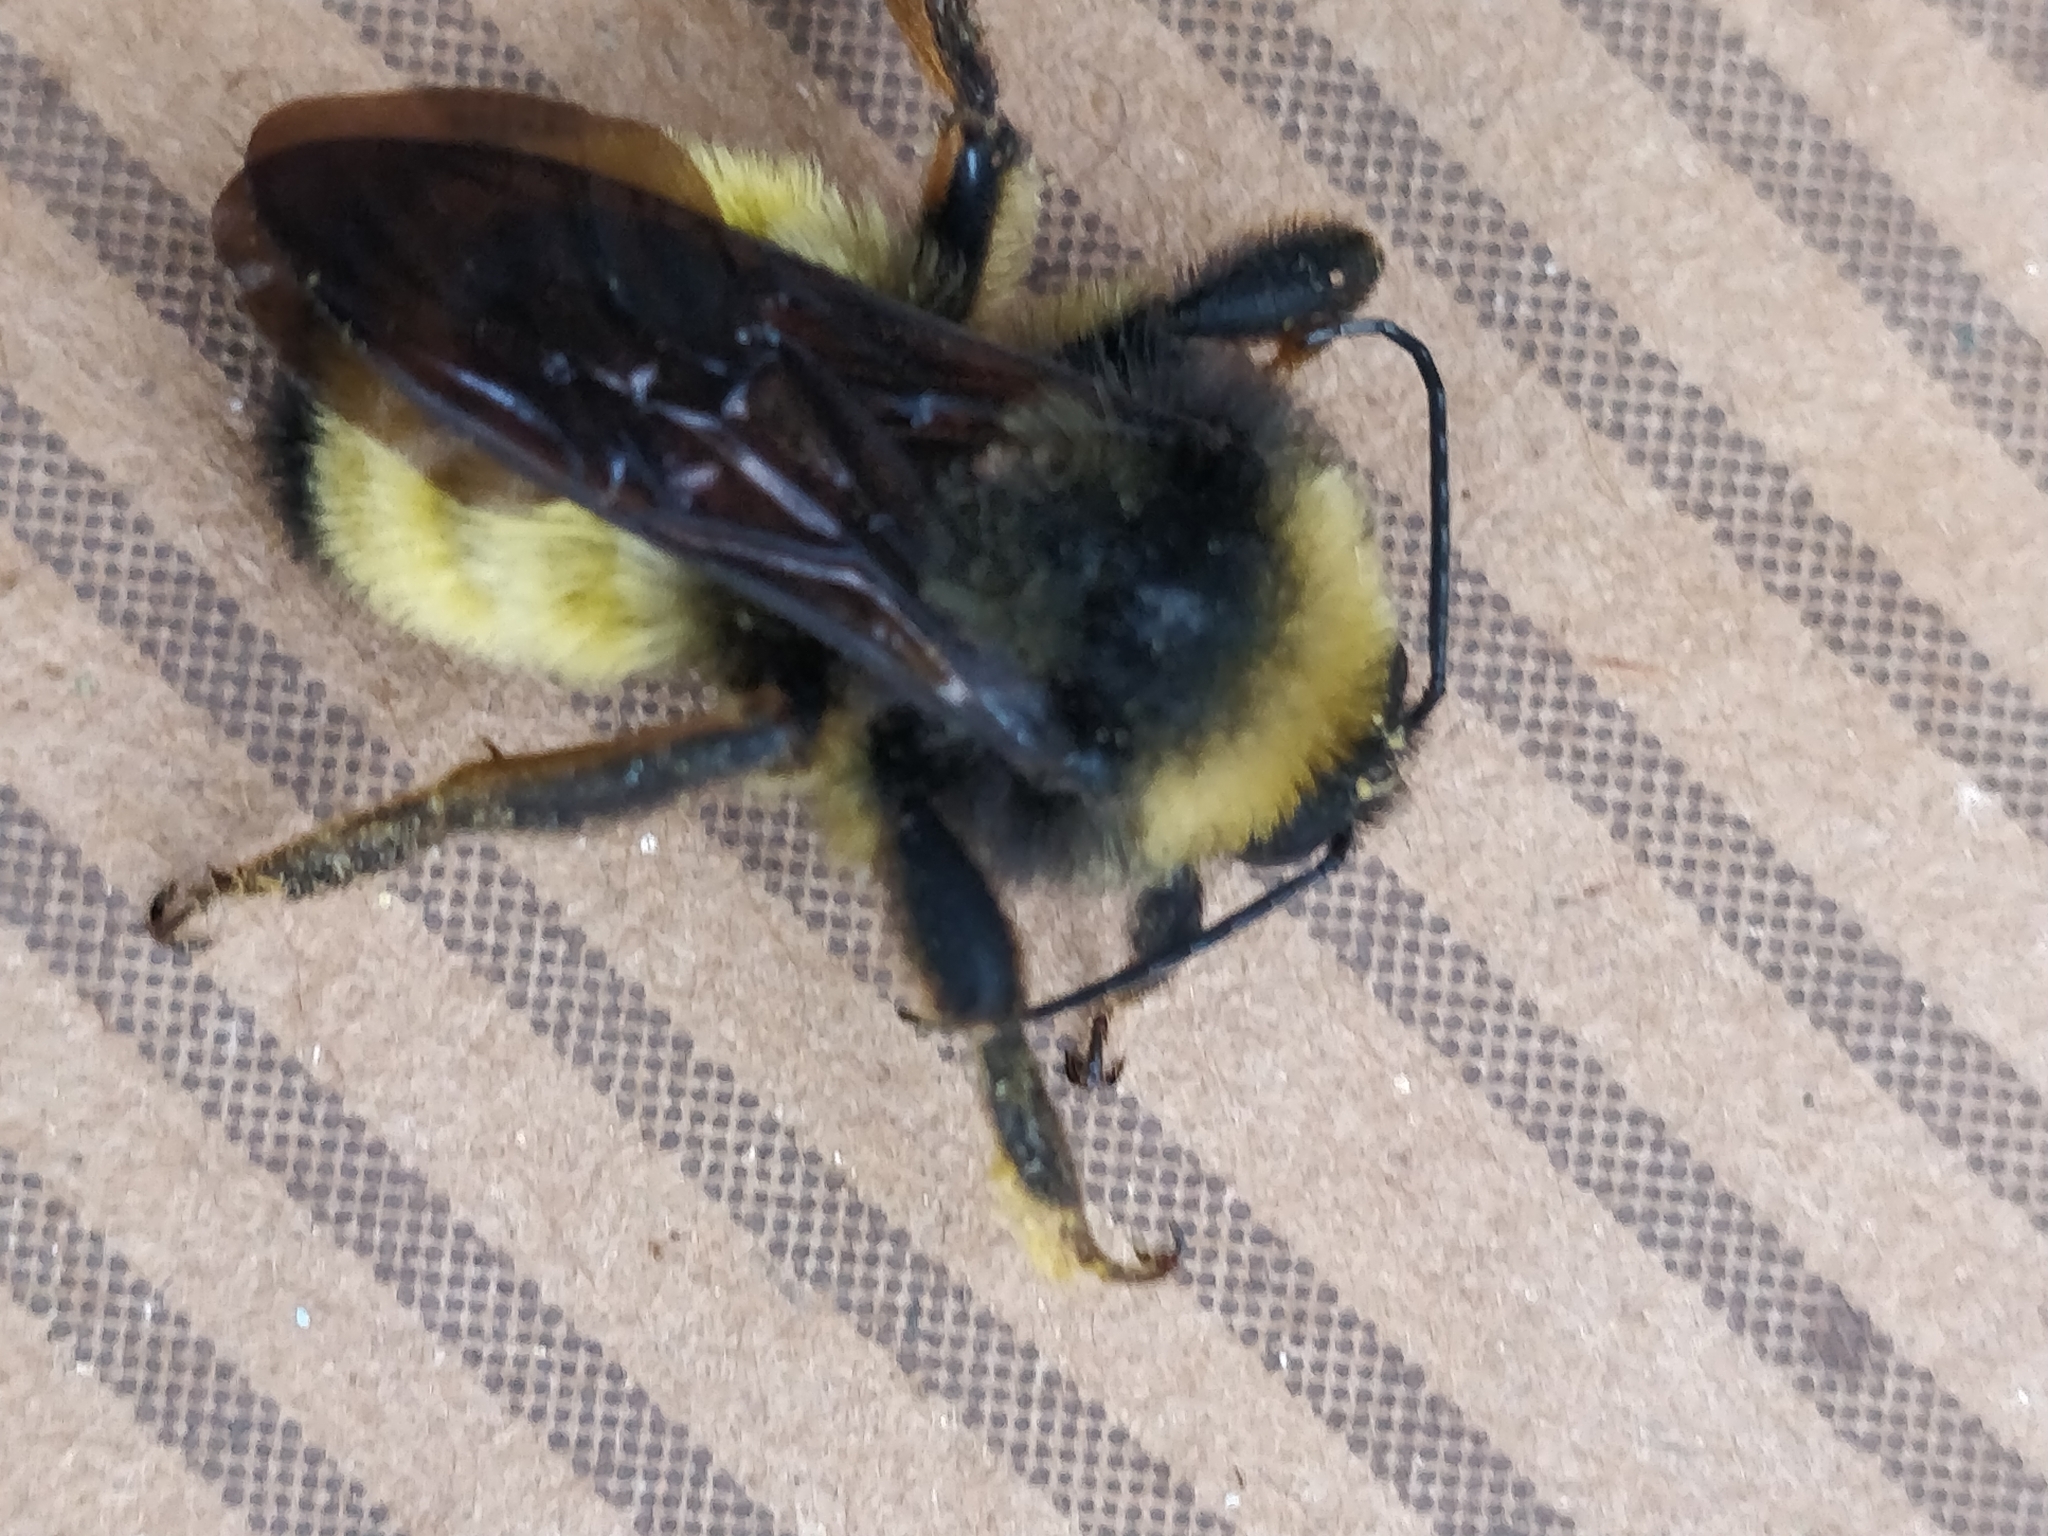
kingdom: Animalia
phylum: Arthropoda
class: Insecta
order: Hymenoptera
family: Apidae
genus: Bombus
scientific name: Bombus pensylvanicus
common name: Bumble bee
